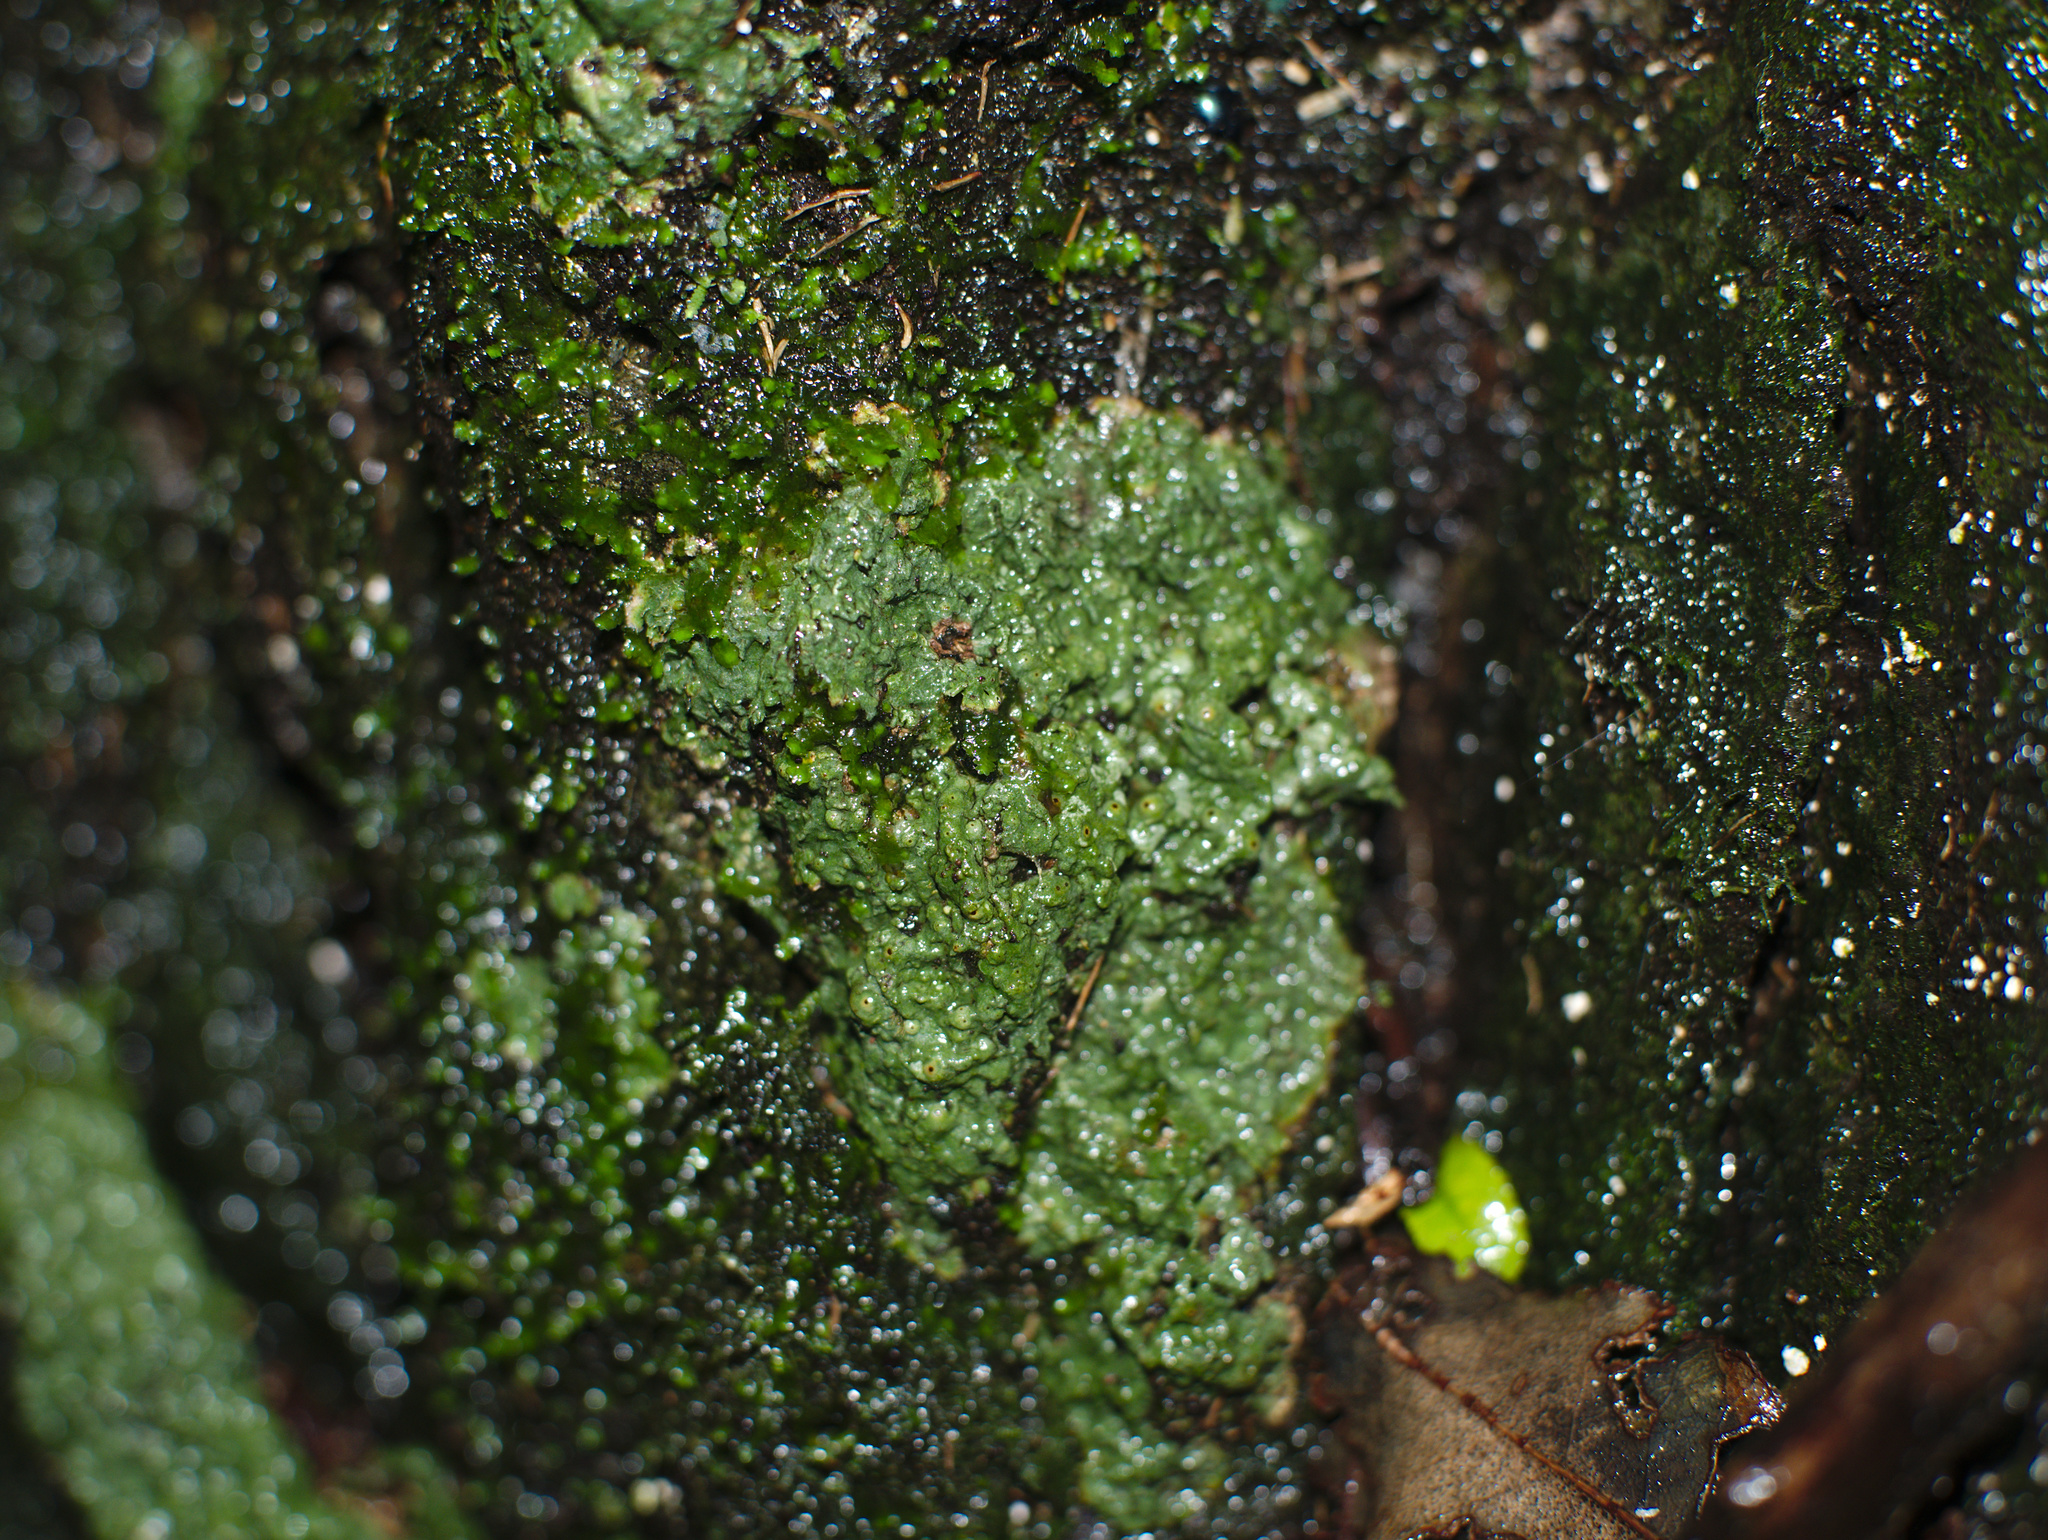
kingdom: Fungi
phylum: Ascomycota
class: Lecanoromycetes
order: Pertusariales
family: Pertusariaceae
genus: Porina
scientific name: Porina exocha
